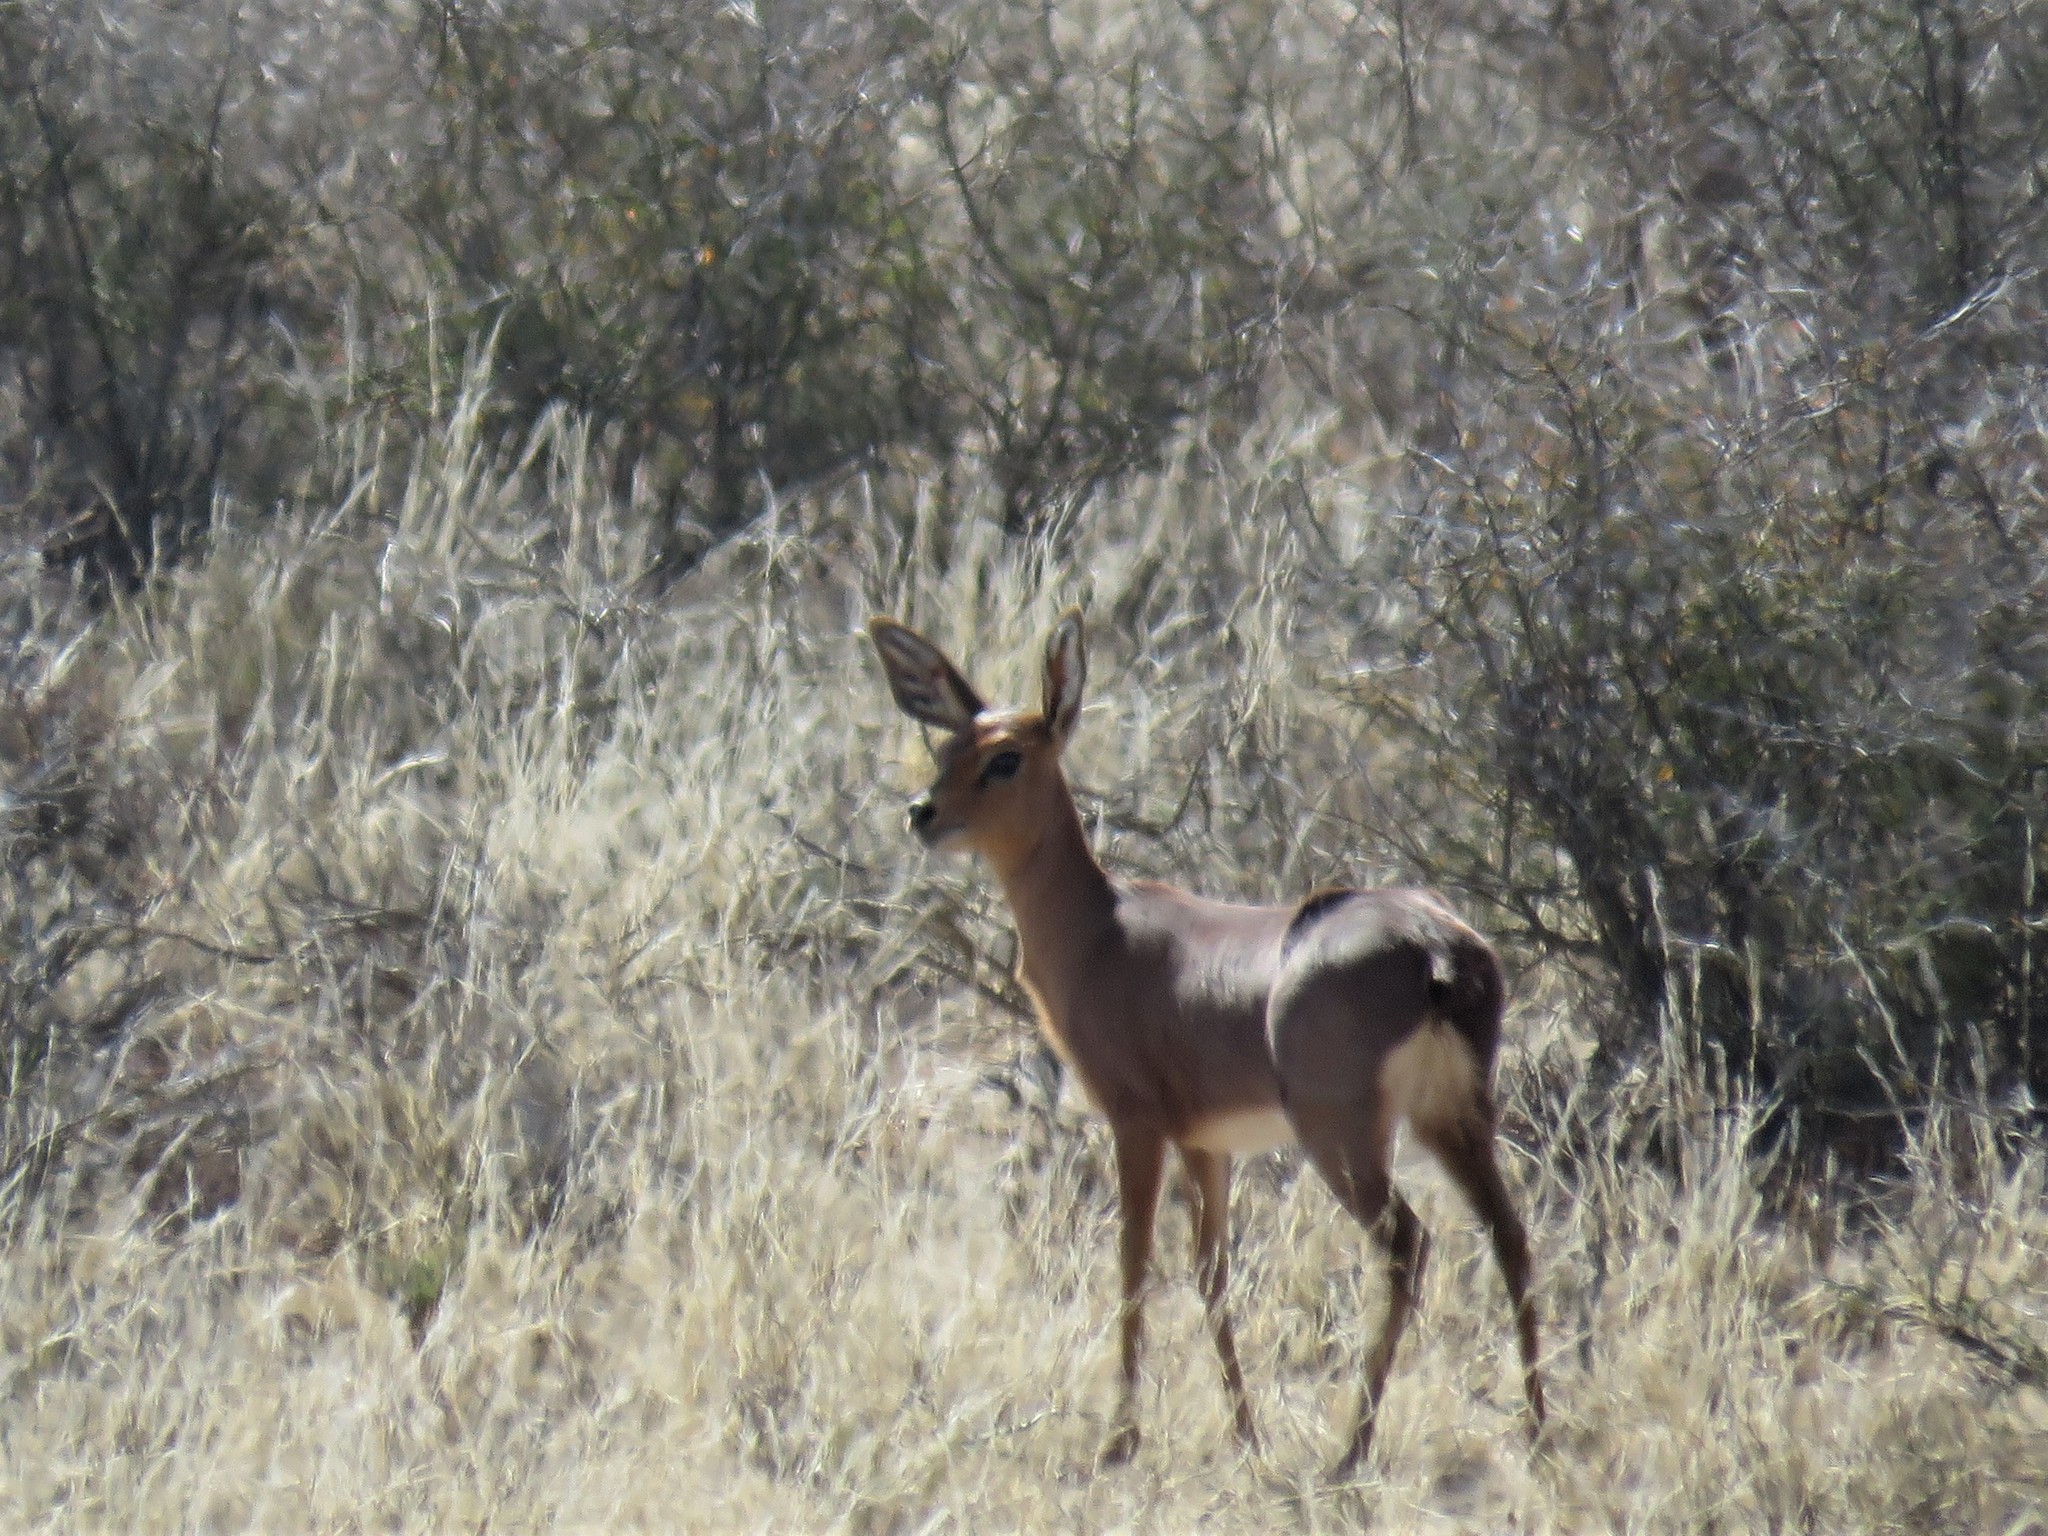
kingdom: Animalia
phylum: Chordata
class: Mammalia
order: Artiodactyla
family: Bovidae
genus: Raphicerus
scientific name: Raphicerus campestris
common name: Steenbok
